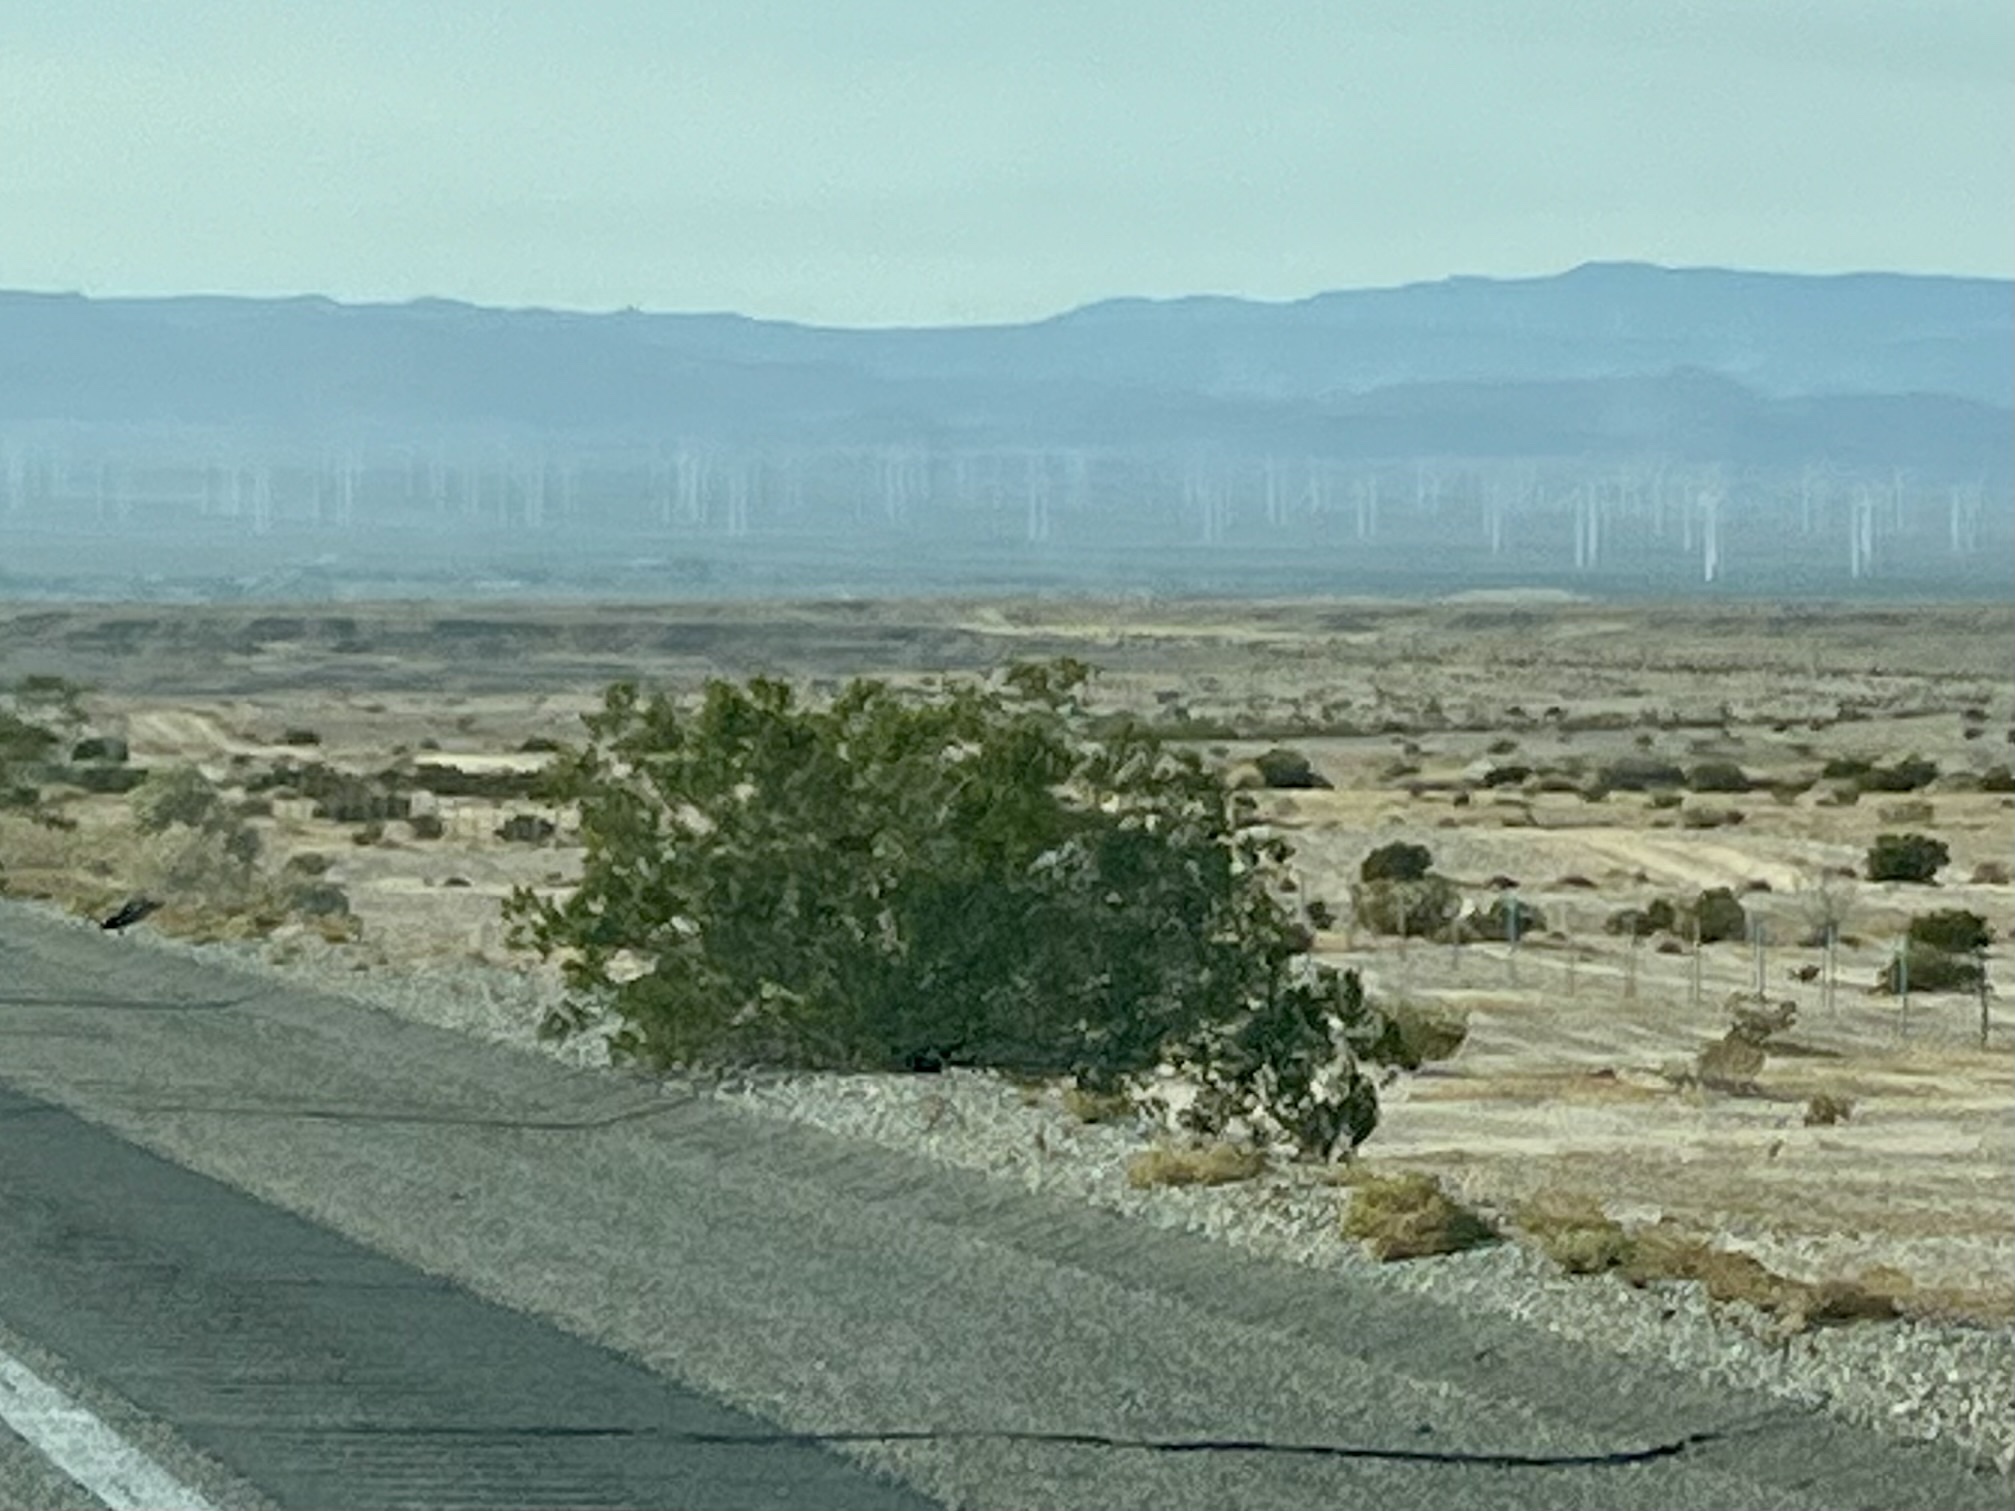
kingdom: Plantae
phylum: Tracheophyta
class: Magnoliopsida
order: Zygophyllales
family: Zygophyllaceae
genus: Larrea
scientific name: Larrea tridentata
